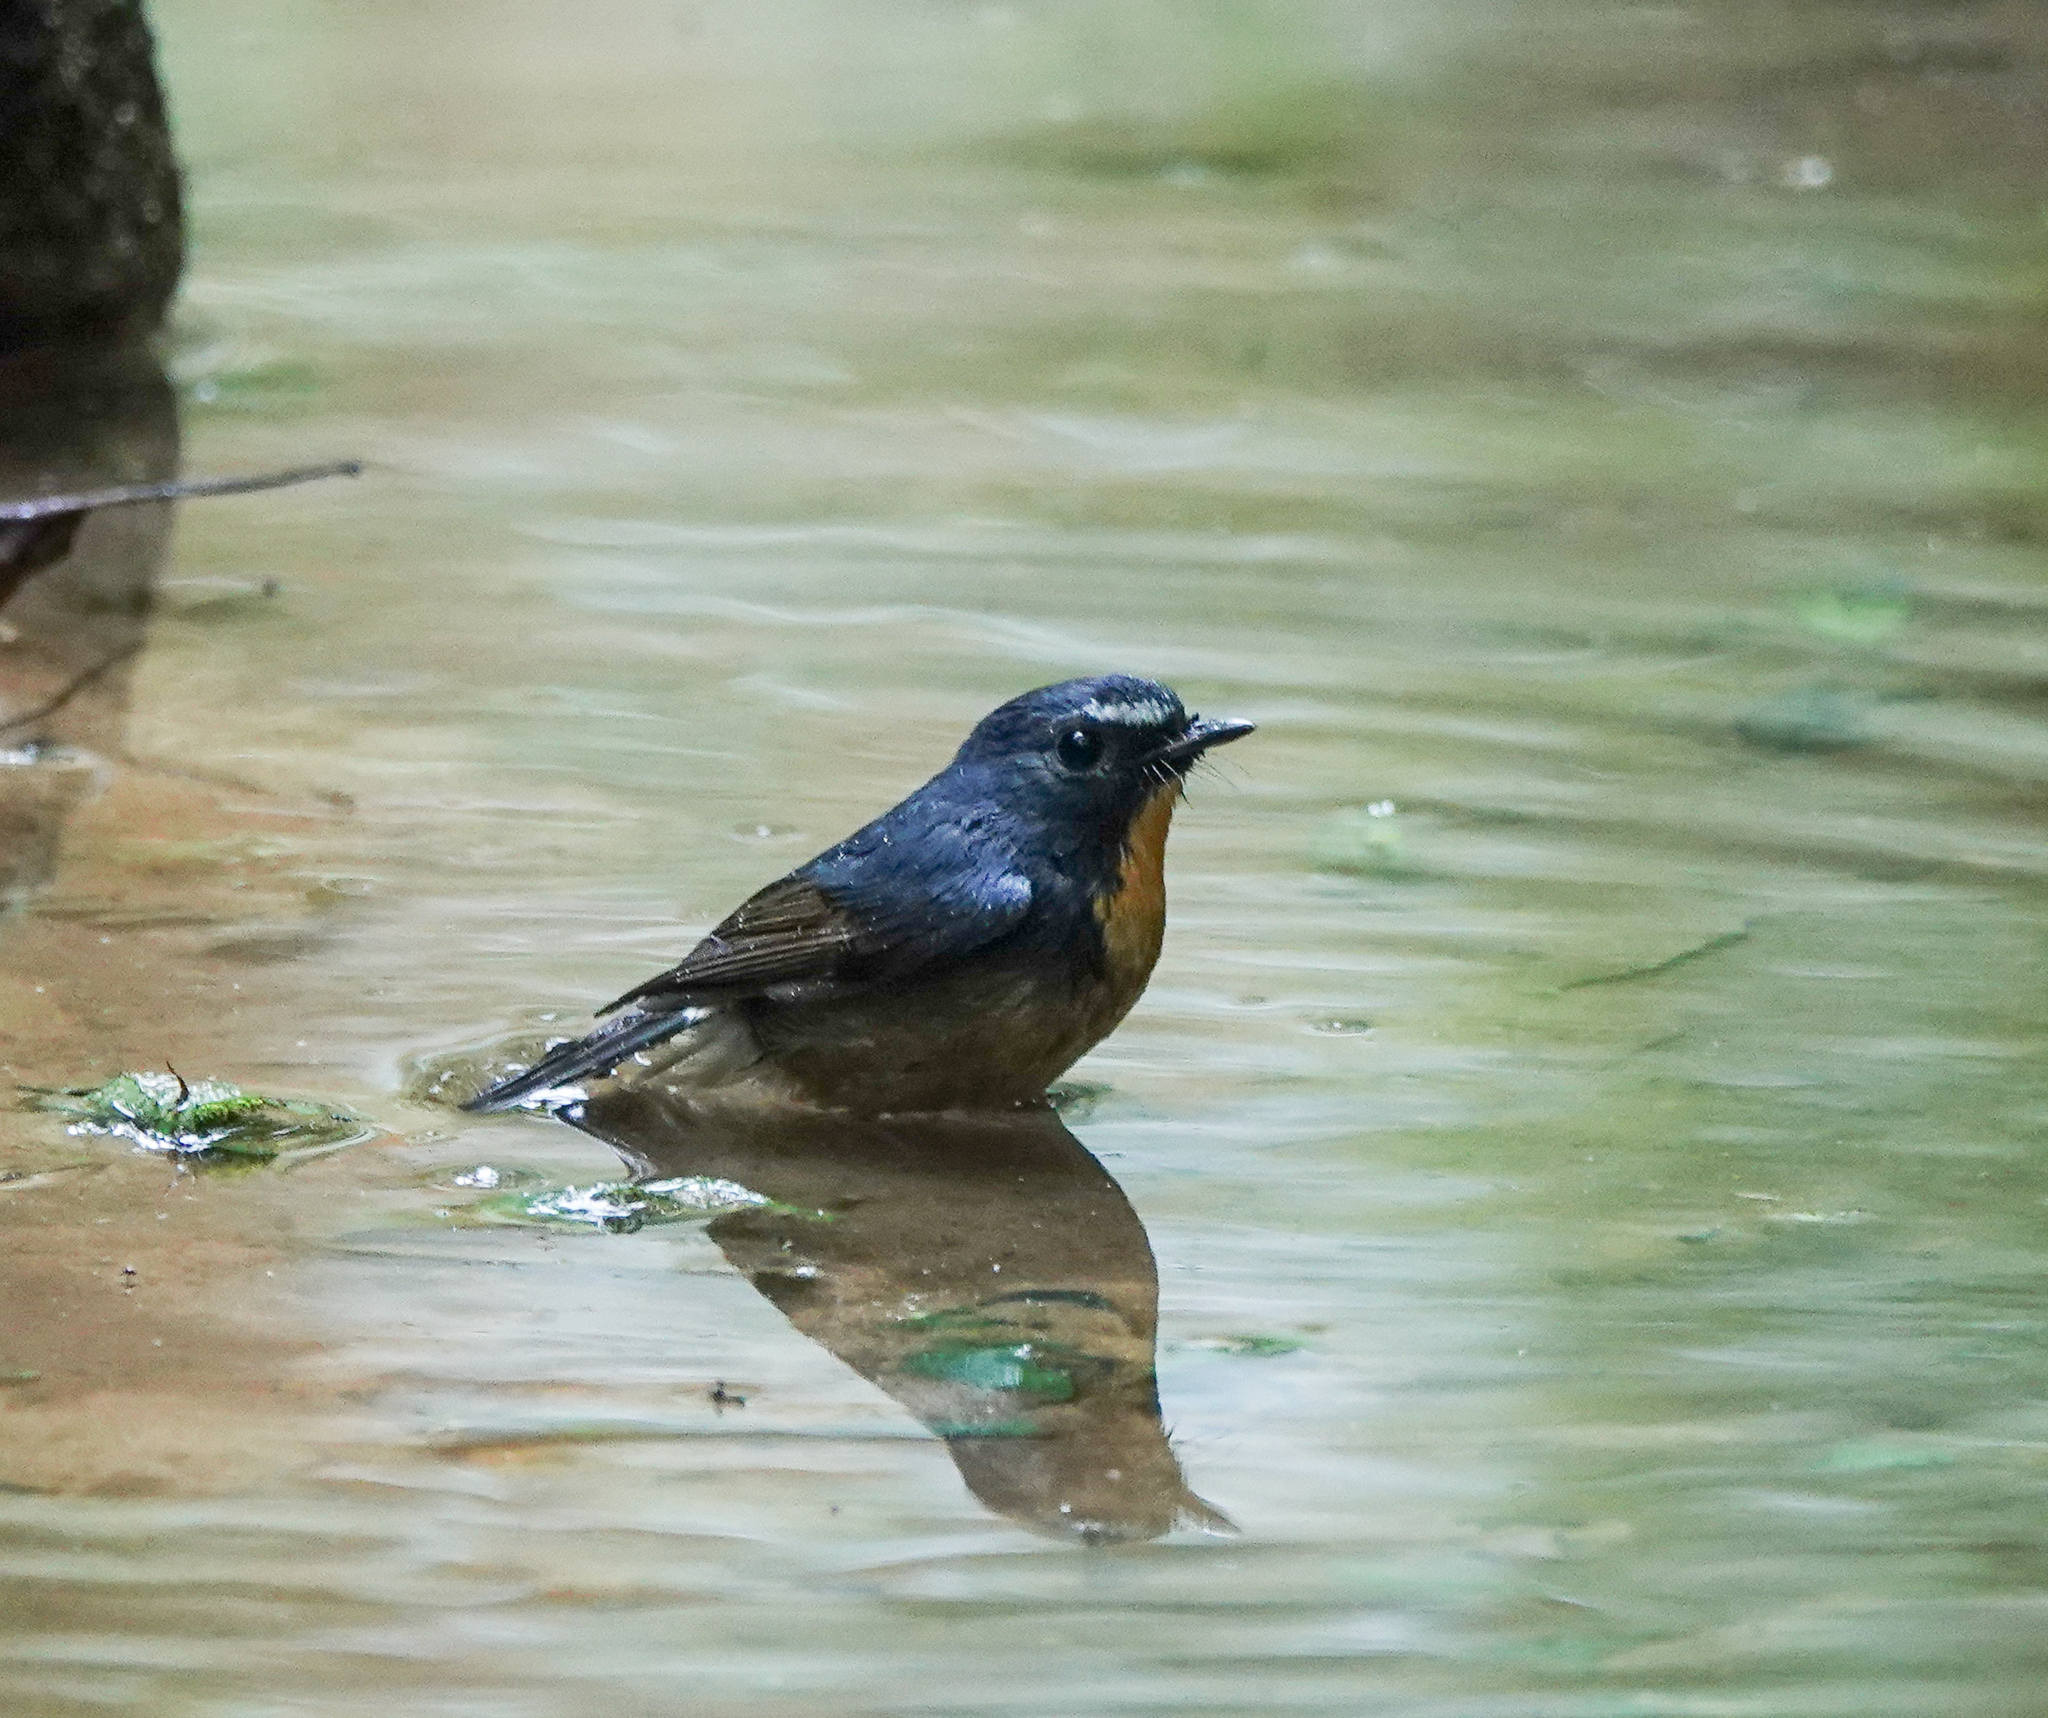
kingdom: Animalia
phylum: Chordata
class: Aves
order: Passeriformes
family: Muscicapidae
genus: Ficedula
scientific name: Ficedula hyperythra
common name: Snowy-browed flycatcher
